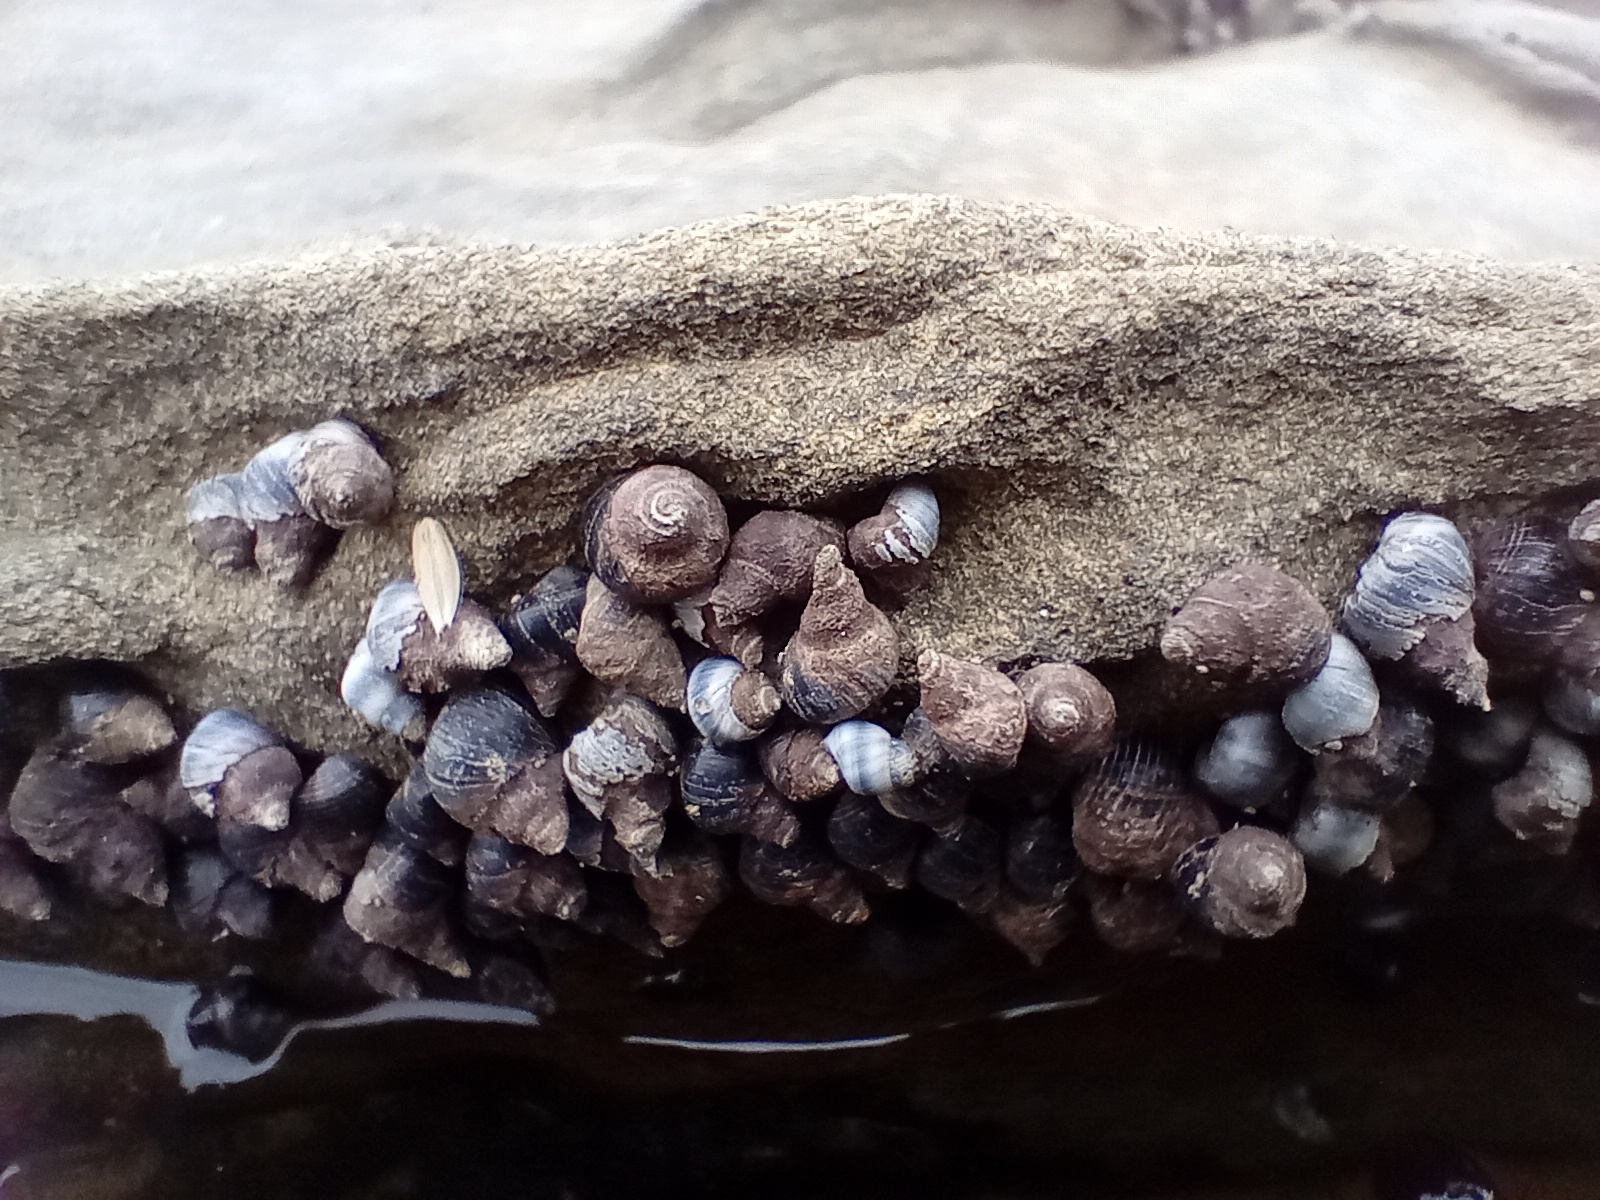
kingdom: Animalia
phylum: Mollusca
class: Gastropoda
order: Littorinimorpha
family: Littorinidae
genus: Austrolittorina
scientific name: Austrolittorina antipodum
